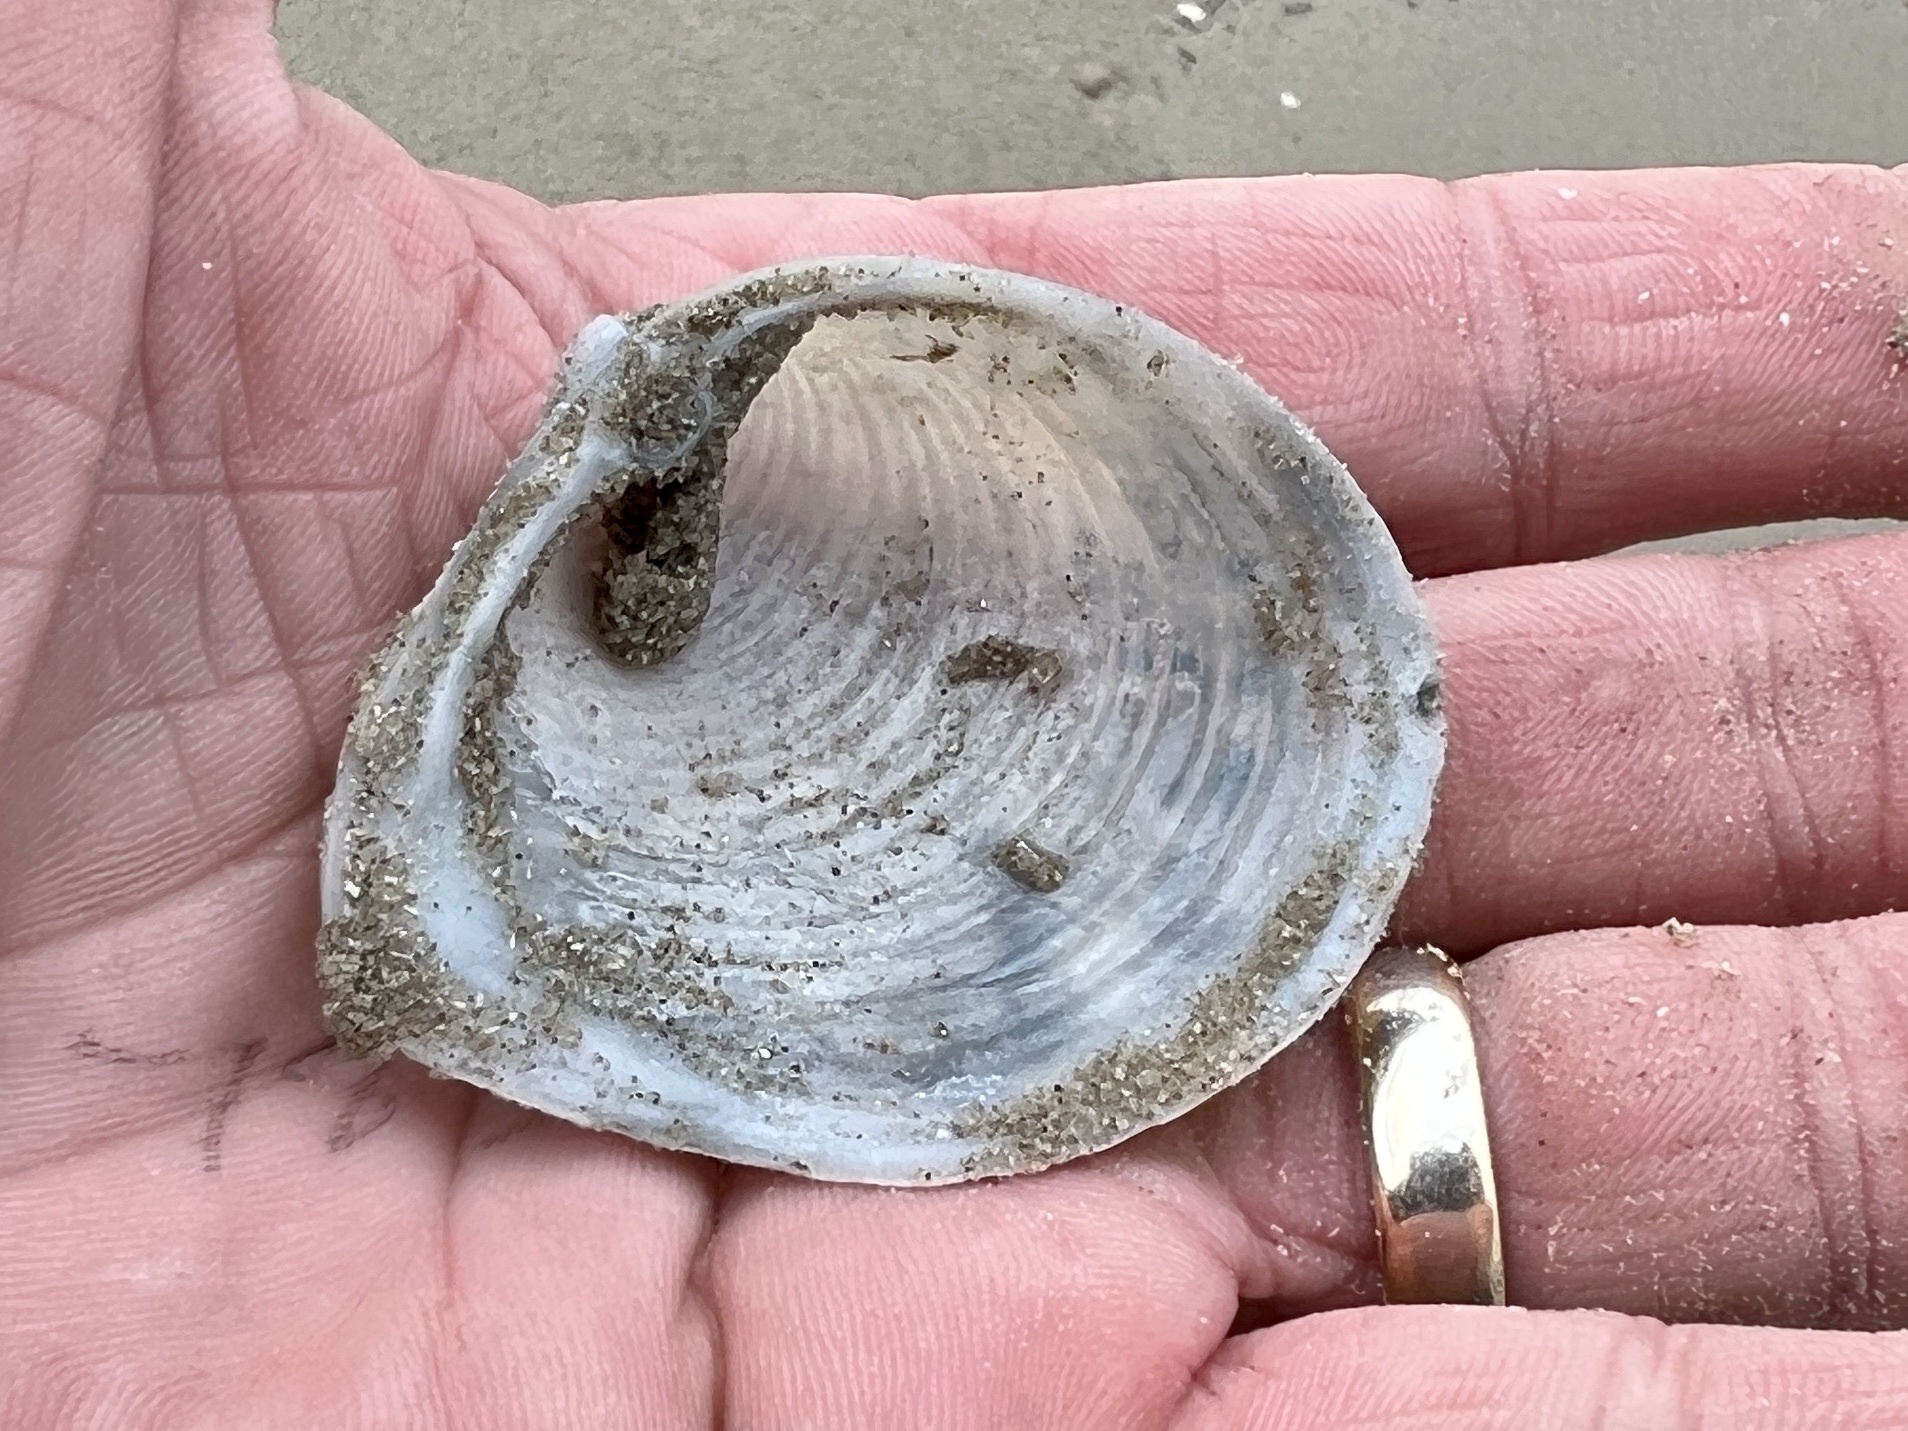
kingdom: Animalia
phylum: Mollusca
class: Bivalvia
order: Venerida
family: Anatinellidae
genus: Raeta
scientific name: Raeta plicatella
